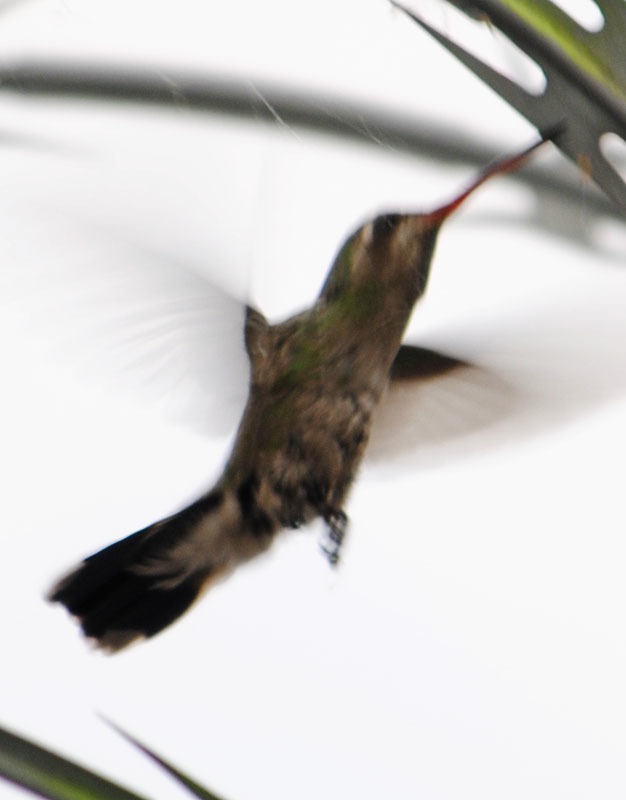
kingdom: Animalia
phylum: Chordata
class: Aves
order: Apodiformes
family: Trochilidae
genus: Cynanthus
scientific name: Cynanthus latirostris
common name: Broad-billed hummingbird
